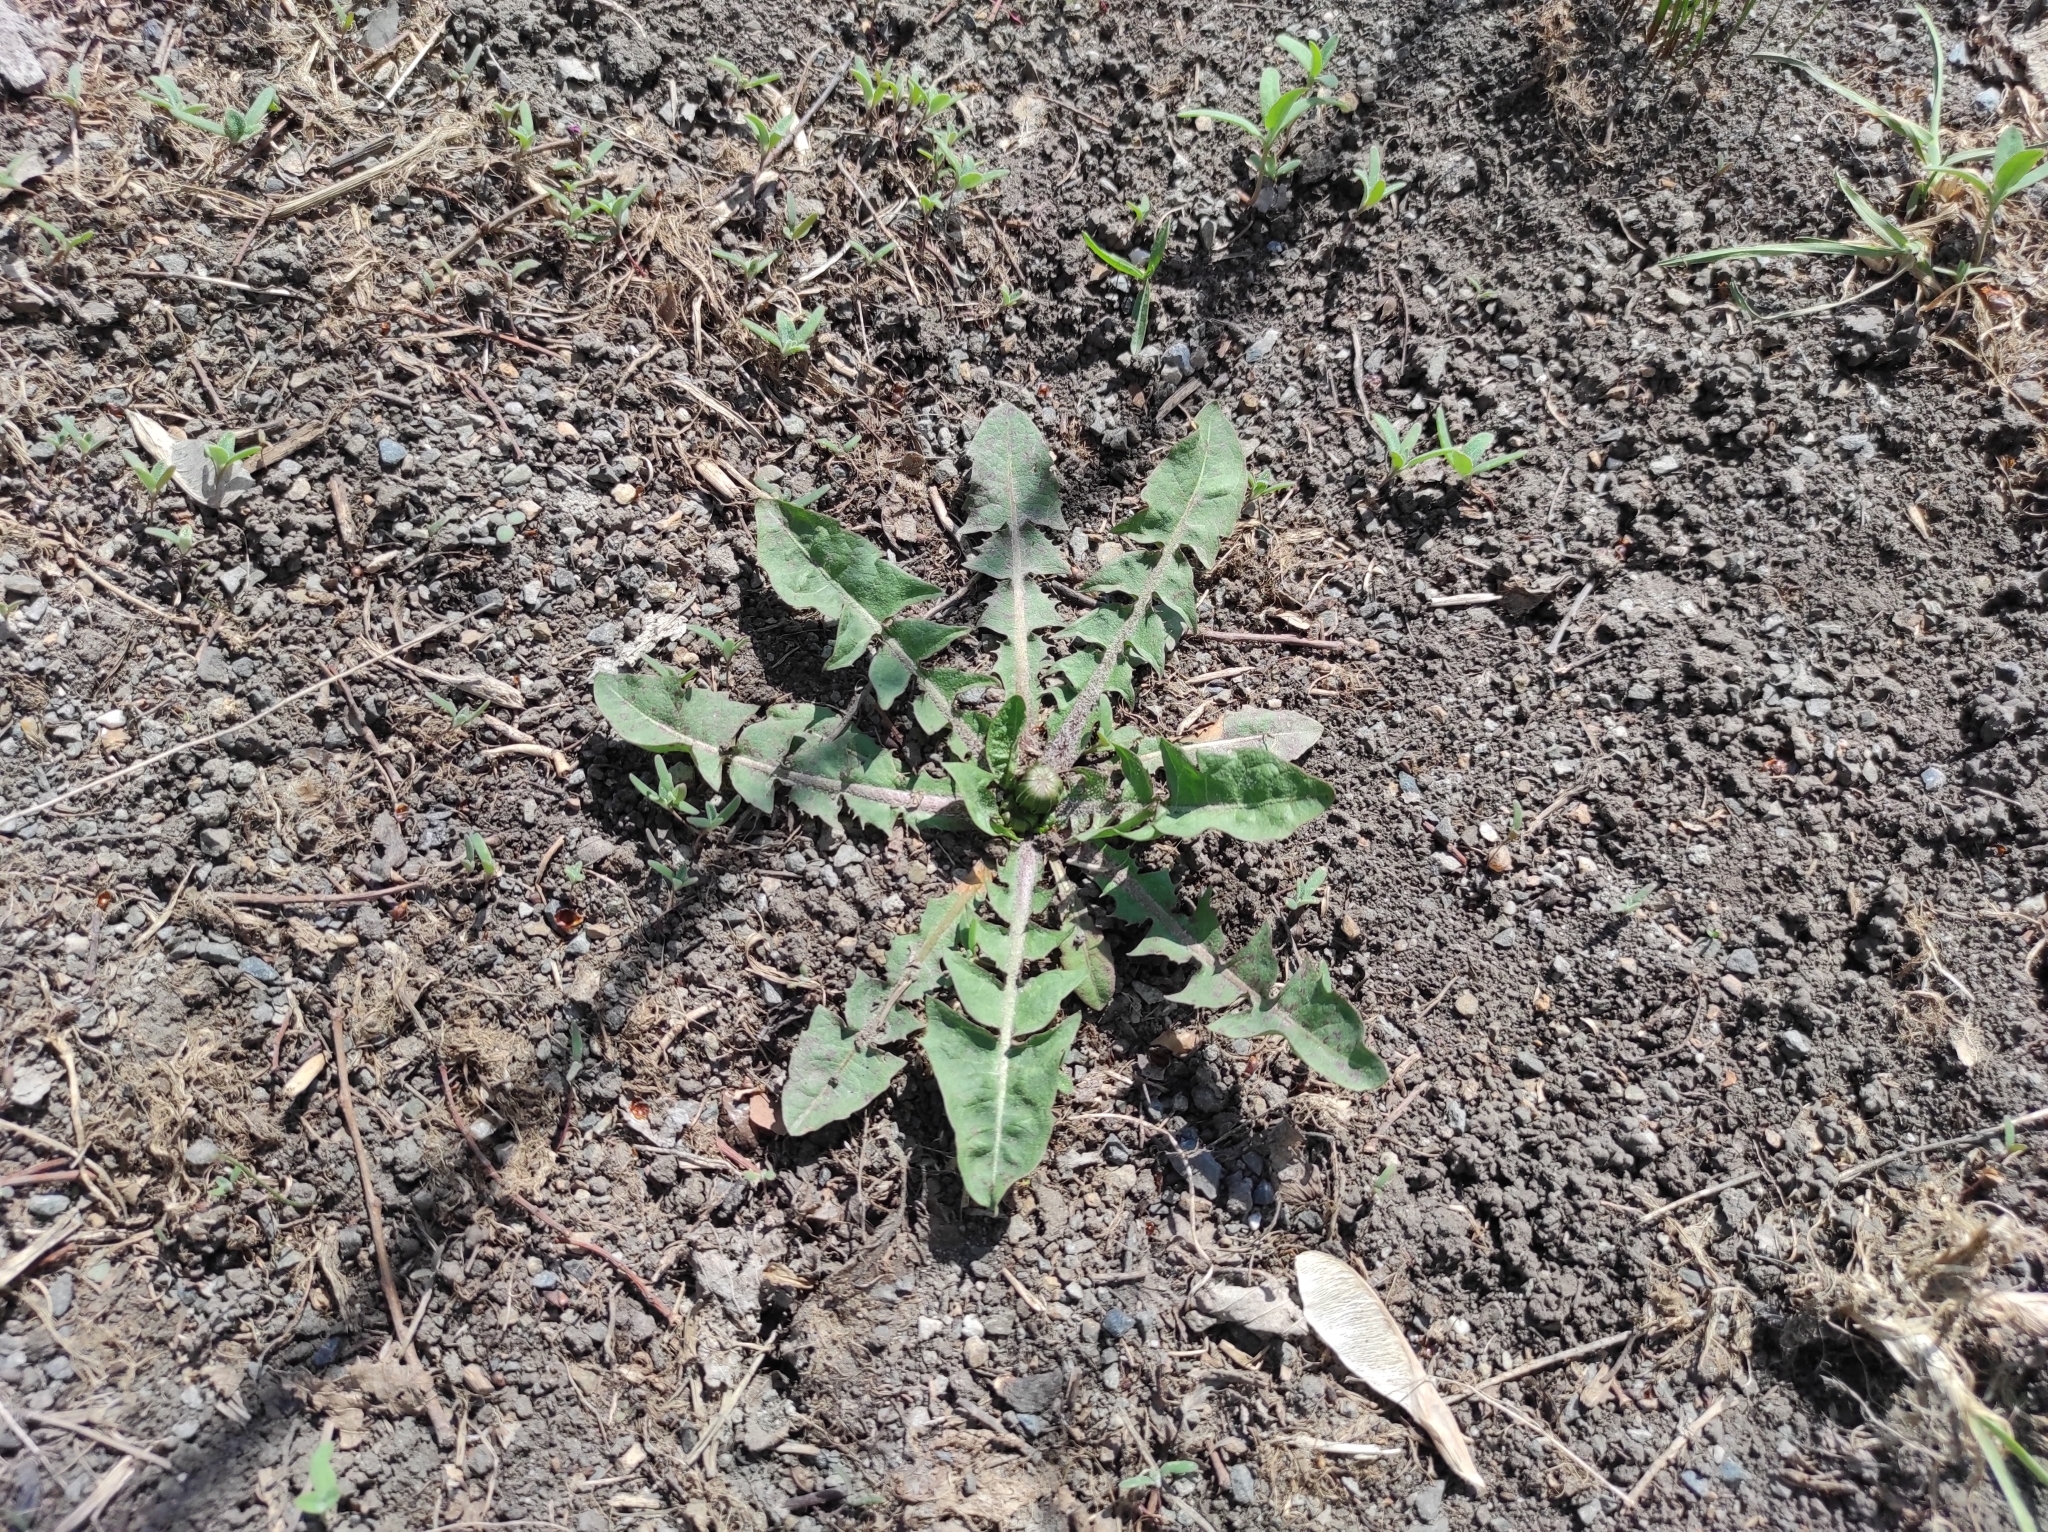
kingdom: Plantae
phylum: Tracheophyta
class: Magnoliopsida
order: Asterales
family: Asteraceae
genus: Taraxacum
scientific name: Taraxacum officinale
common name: Common dandelion
